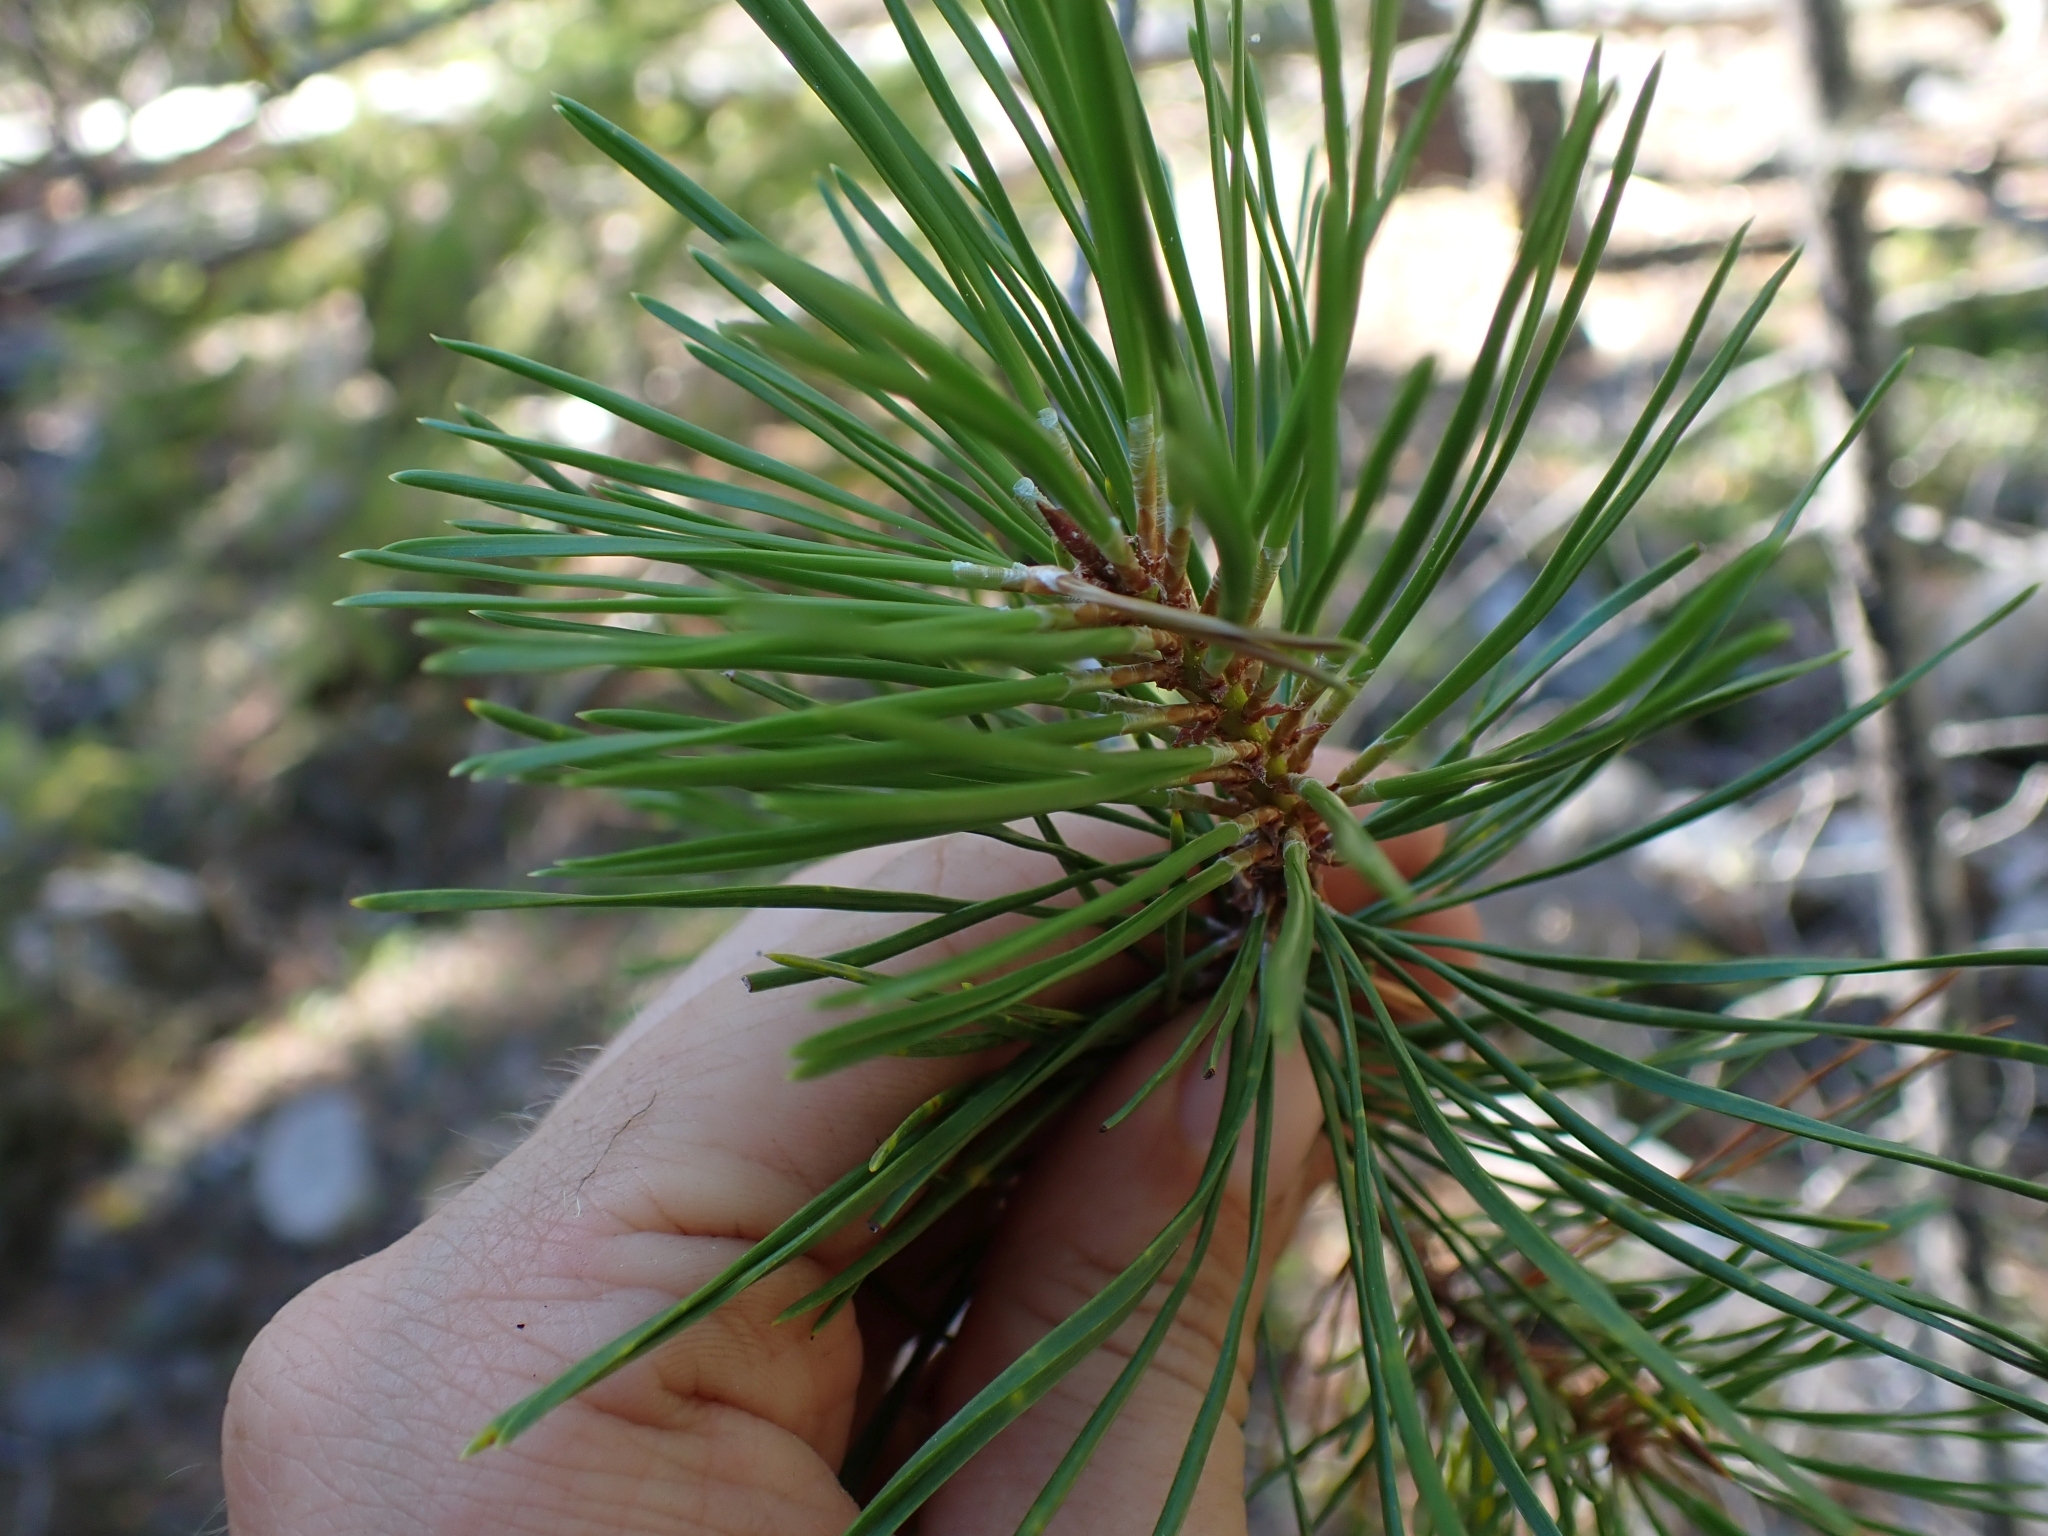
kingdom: Plantae
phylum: Tracheophyta
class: Pinopsida
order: Pinales
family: Pinaceae
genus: Pinus
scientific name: Pinus contorta
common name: Lodgepole pine
